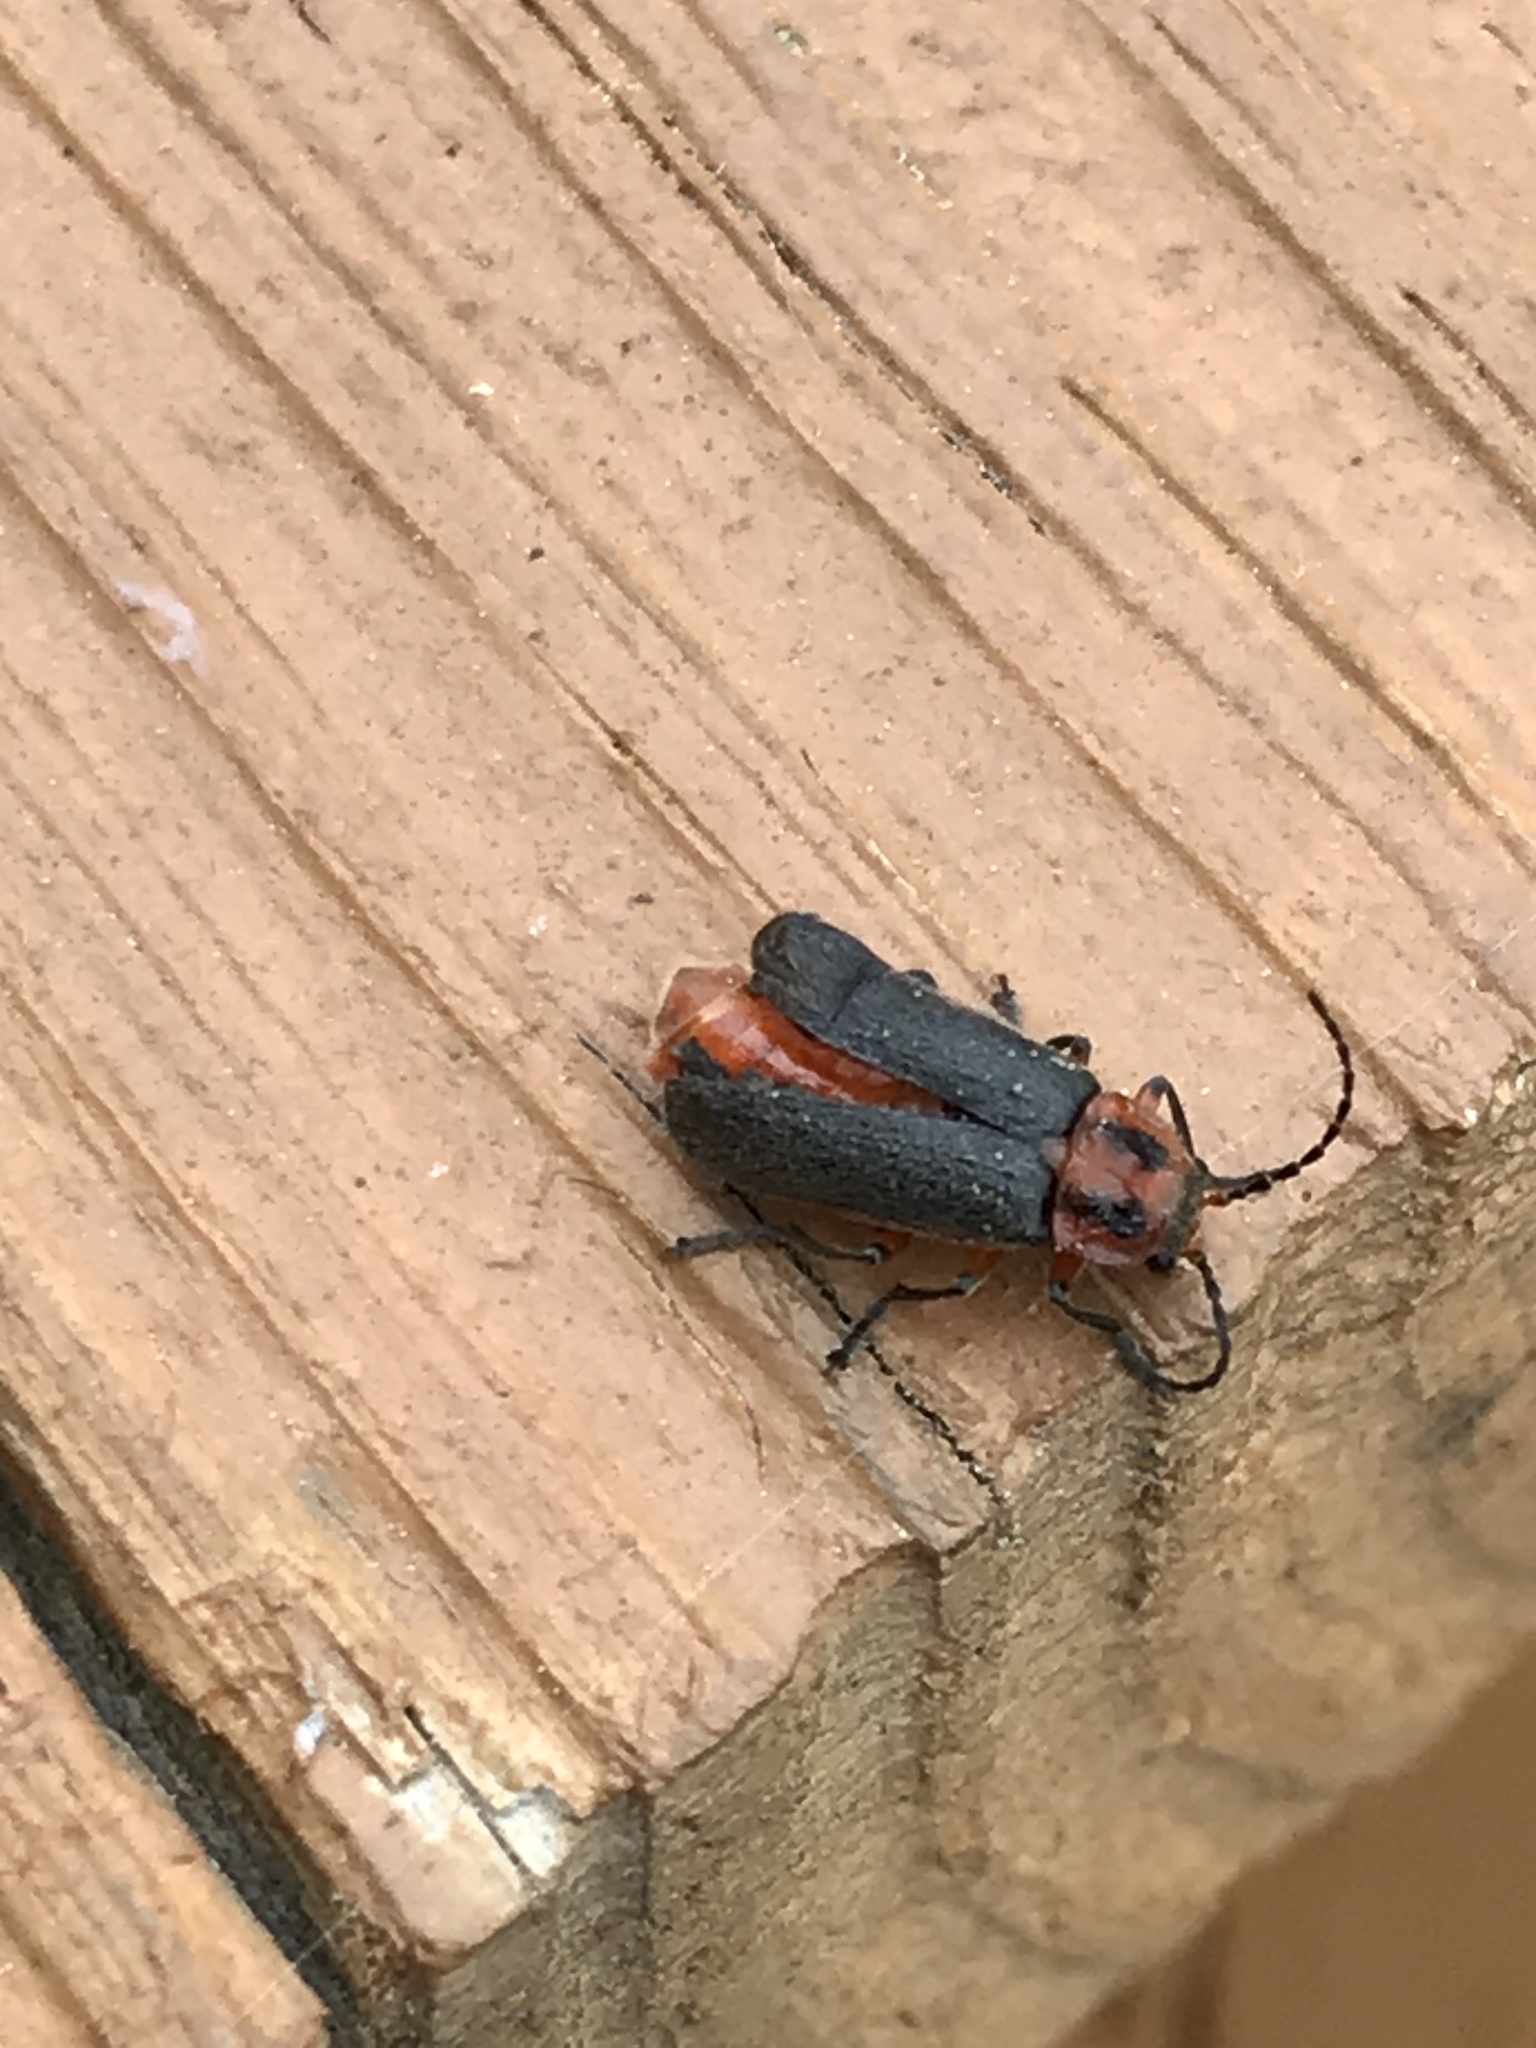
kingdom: Animalia
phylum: Arthropoda
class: Insecta
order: Coleoptera
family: Cantharidae
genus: Atalantycha
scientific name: Atalantycha bilineata
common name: Two-lined leatherwing
